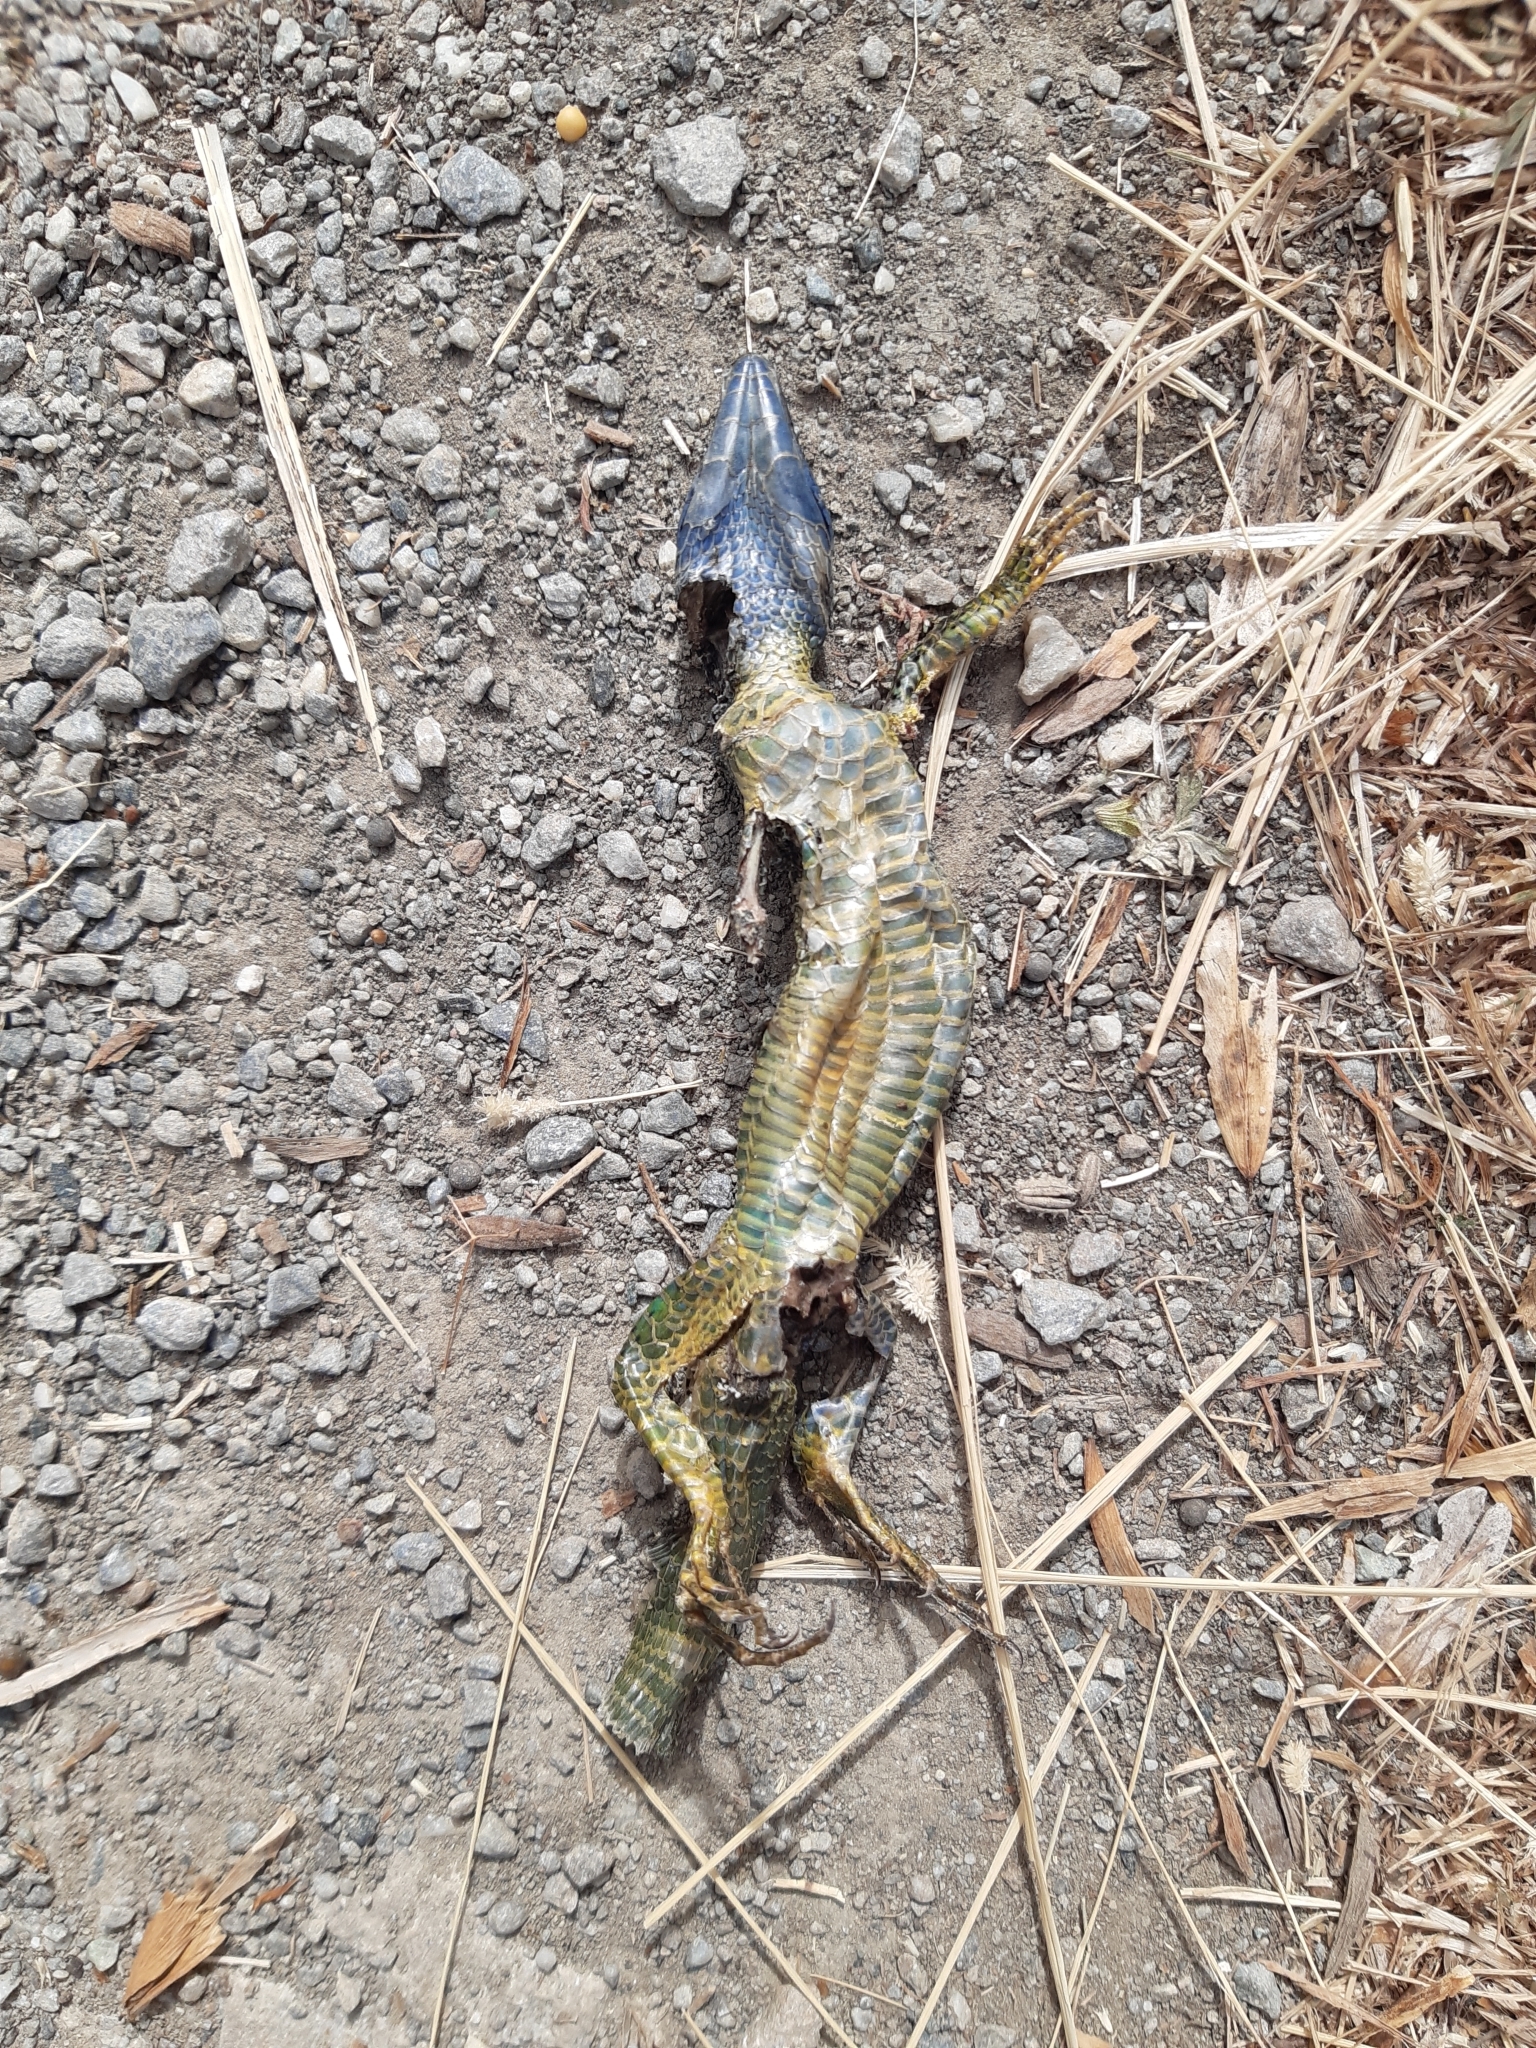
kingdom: Animalia
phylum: Chordata
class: Squamata
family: Lacertidae
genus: Lacerta
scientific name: Lacerta bilineata
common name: Western green lizard
